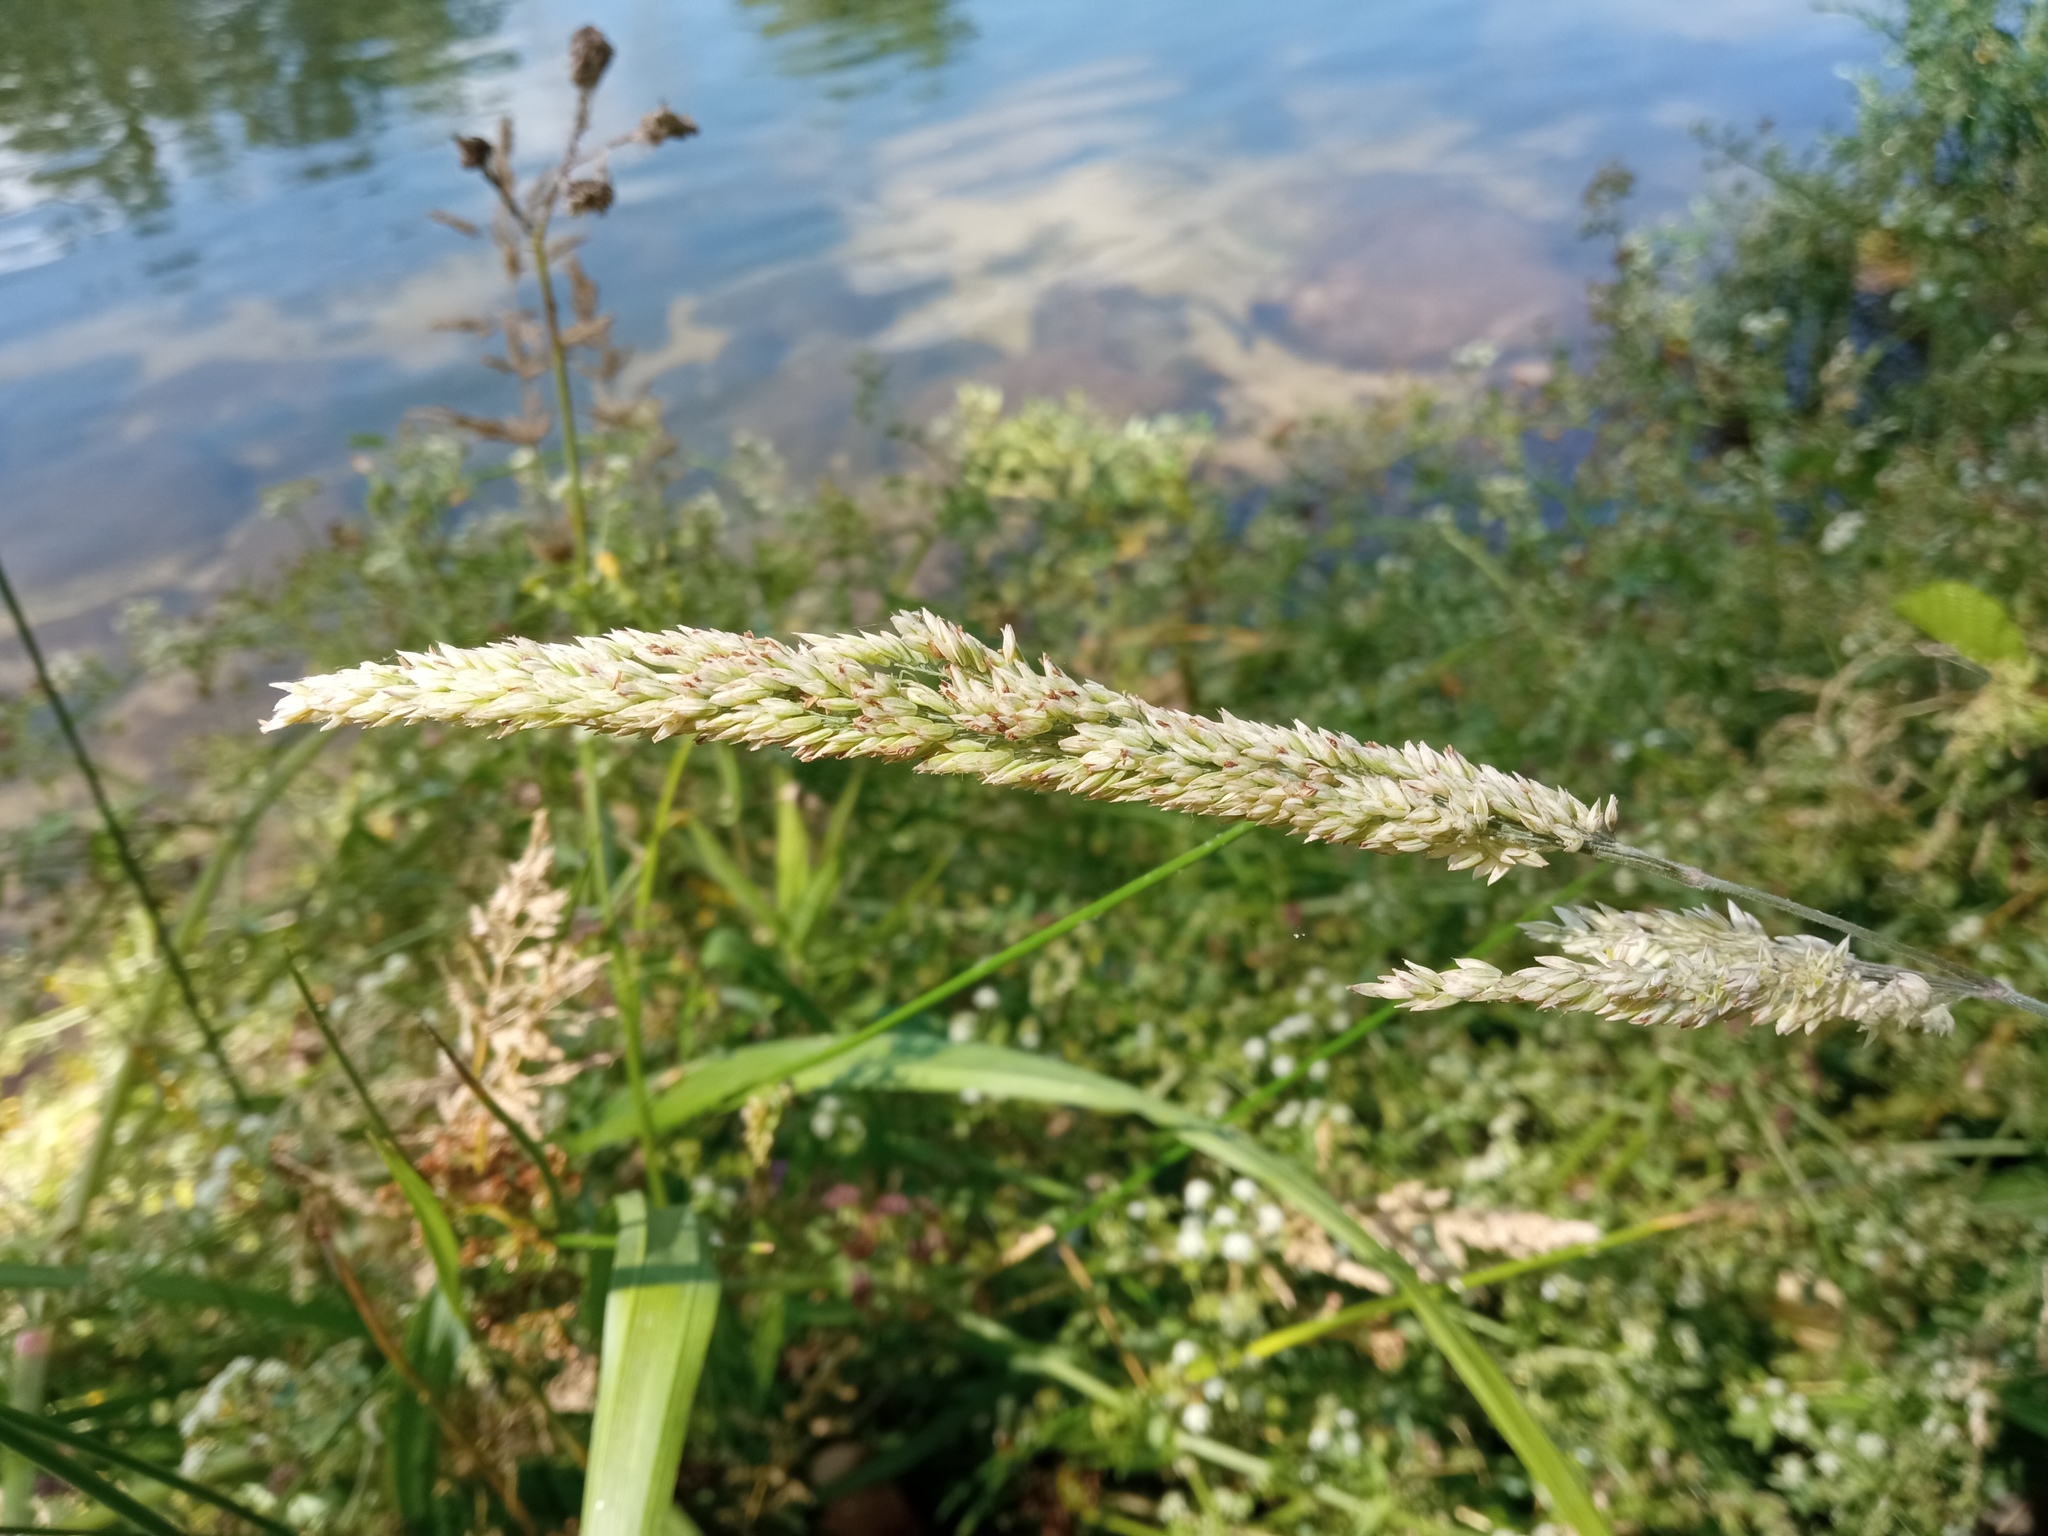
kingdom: Plantae
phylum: Tracheophyta
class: Liliopsida
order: Poales
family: Poaceae
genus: Holcus
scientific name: Holcus lanatus
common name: Yorkshire-fog
